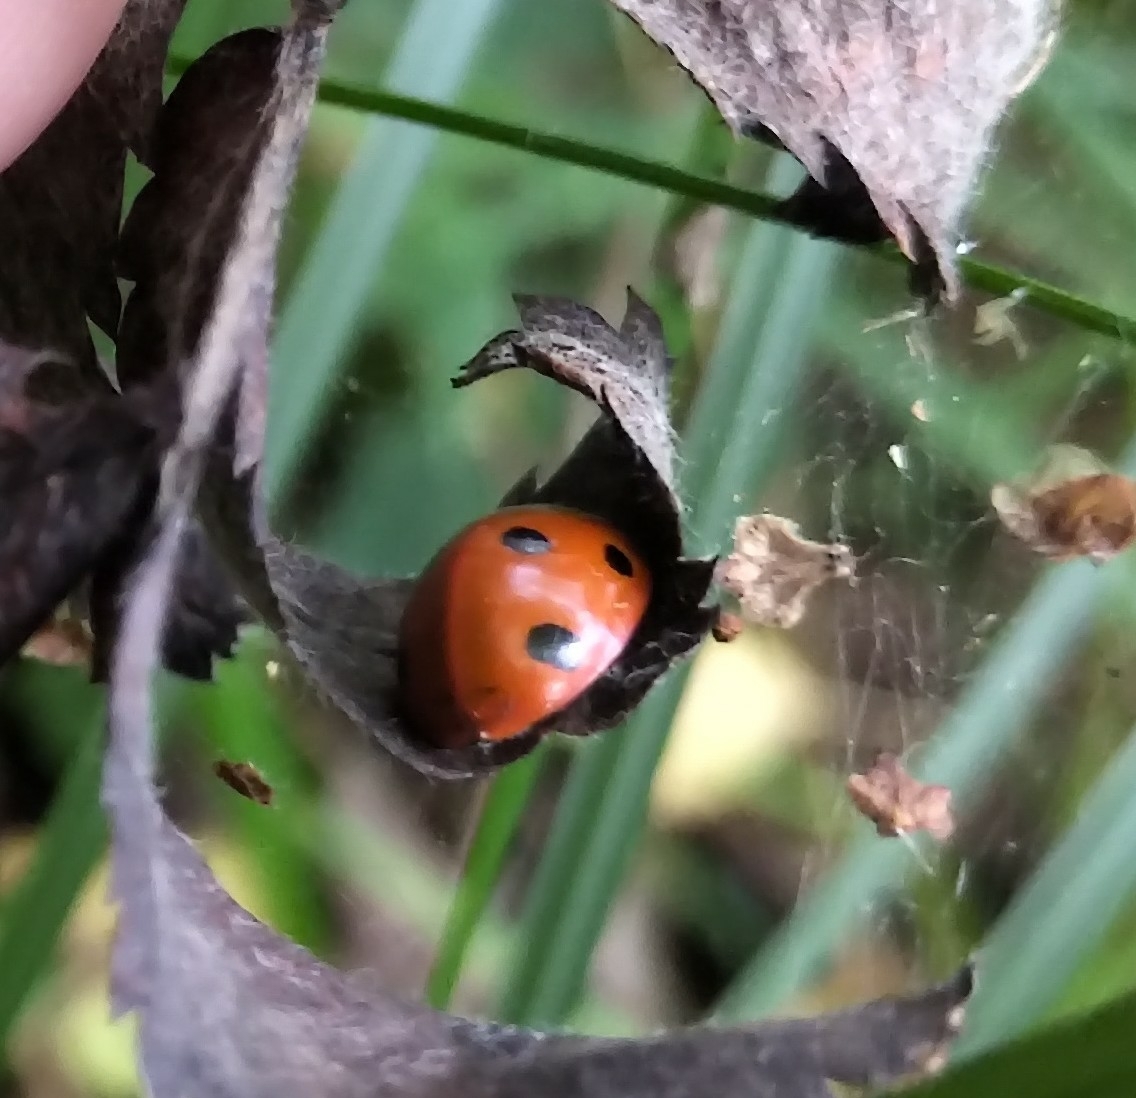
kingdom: Animalia
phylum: Arthropoda
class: Insecta
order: Coleoptera
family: Coccinellidae
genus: Coccinella
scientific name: Coccinella septempunctata
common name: Sevenspotted lady beetle
